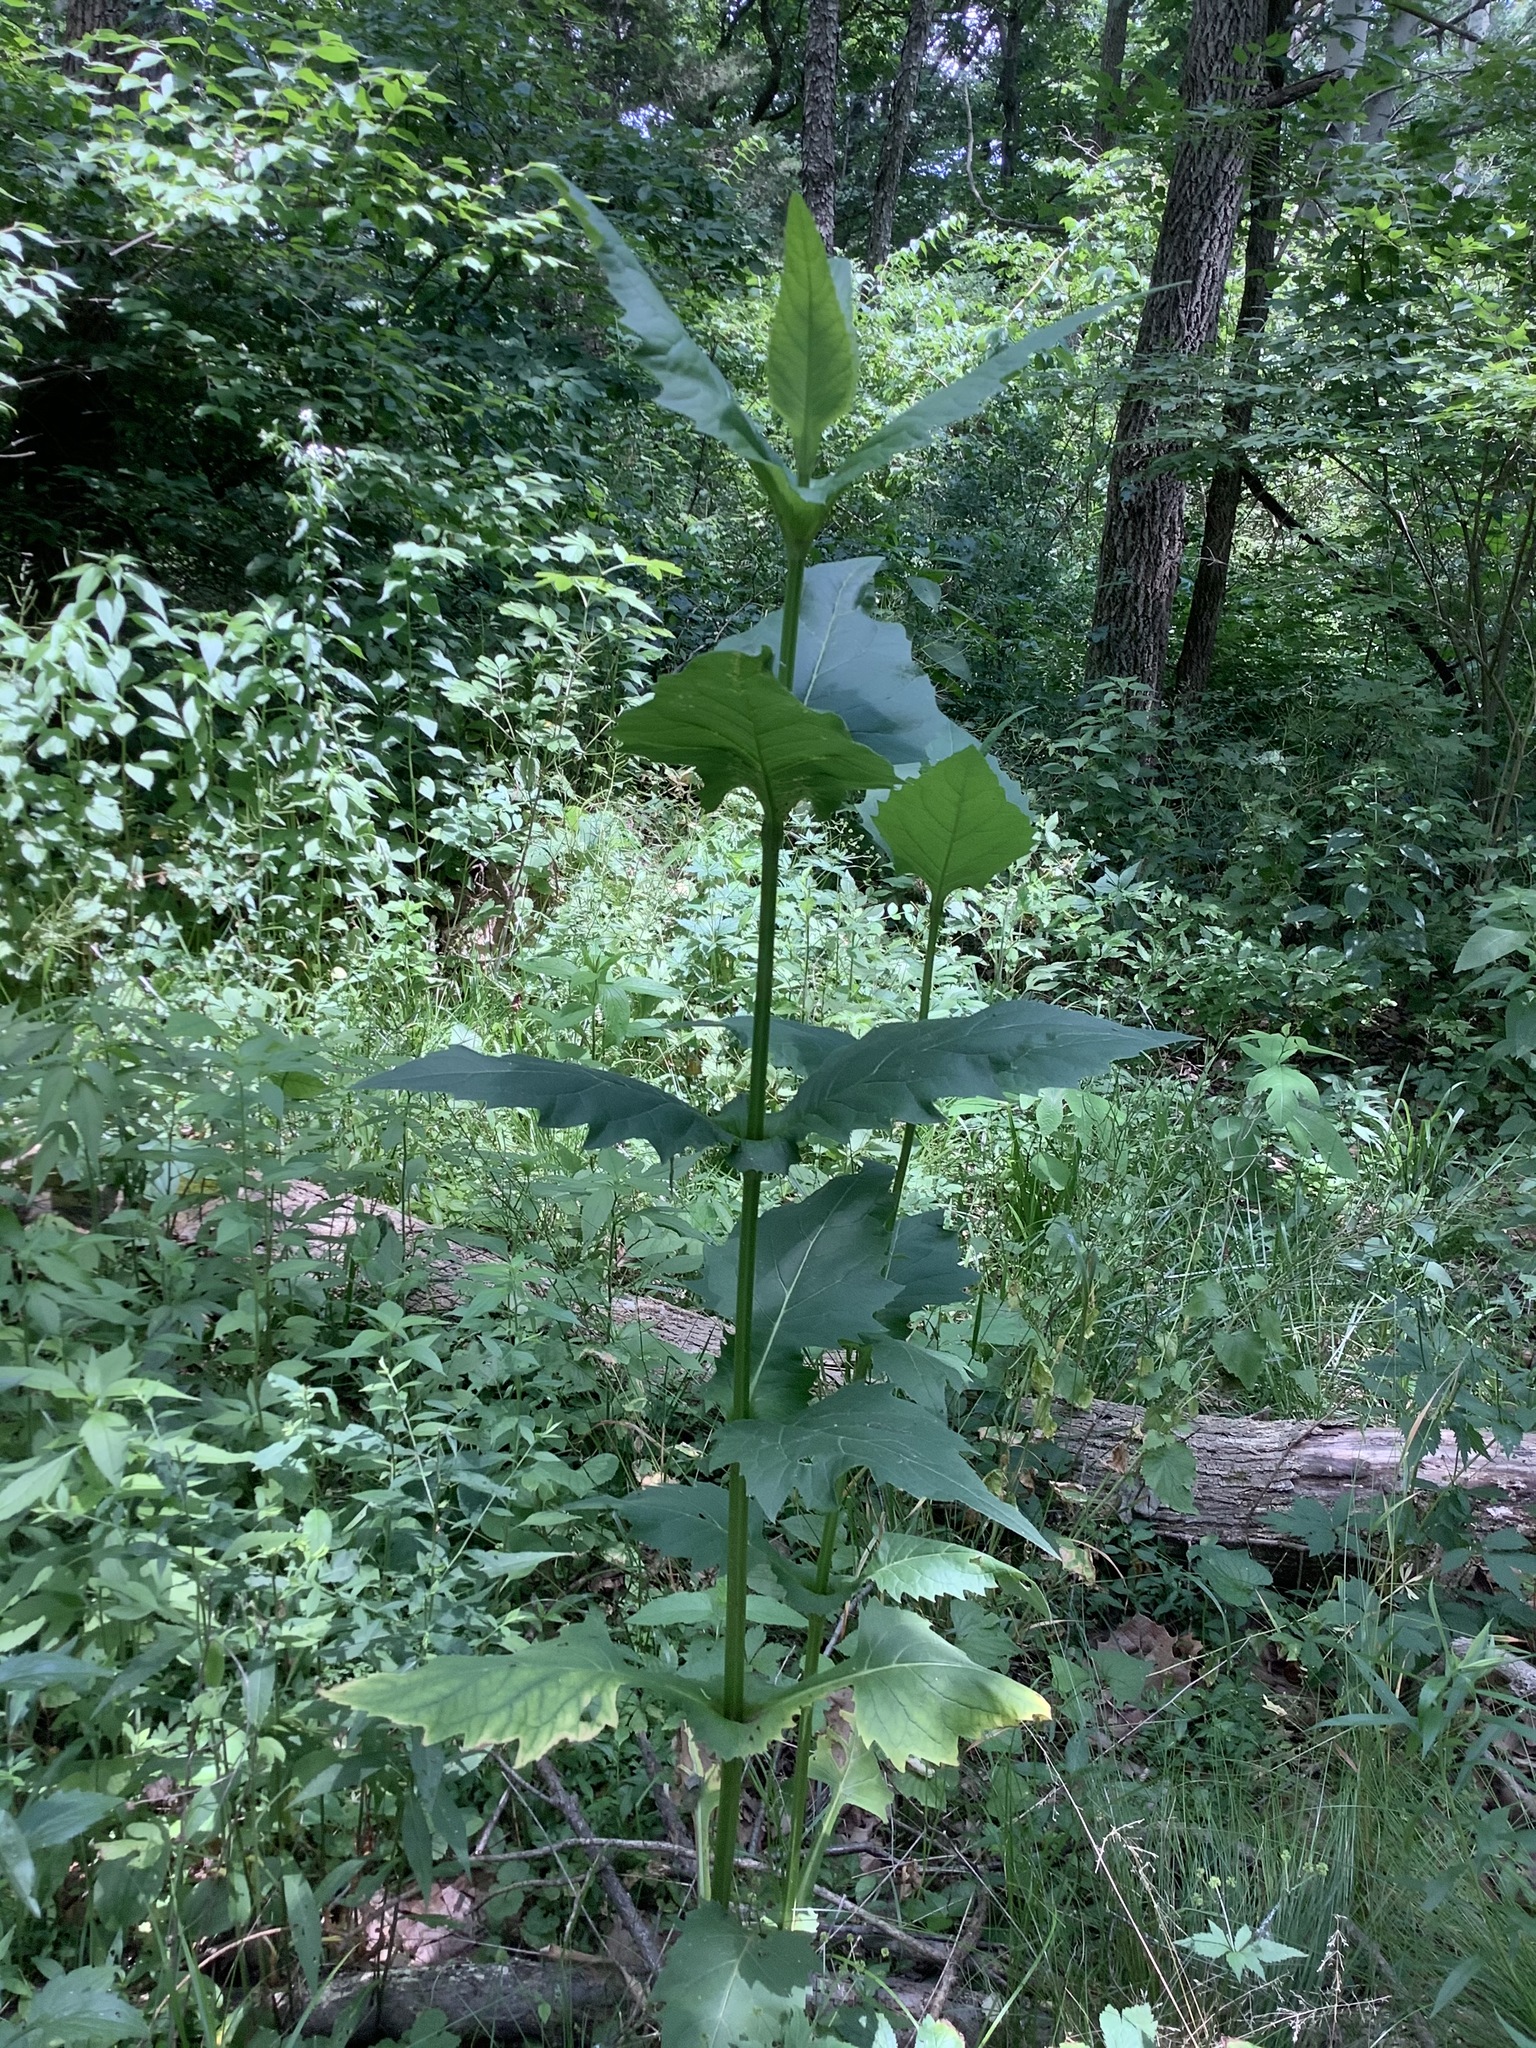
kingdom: Plantae
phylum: Tracheophyta
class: Magnoliopsida
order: Asterales
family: Asteraceae
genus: Silphium
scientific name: Silphium perfoliatum
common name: Cup-plant
